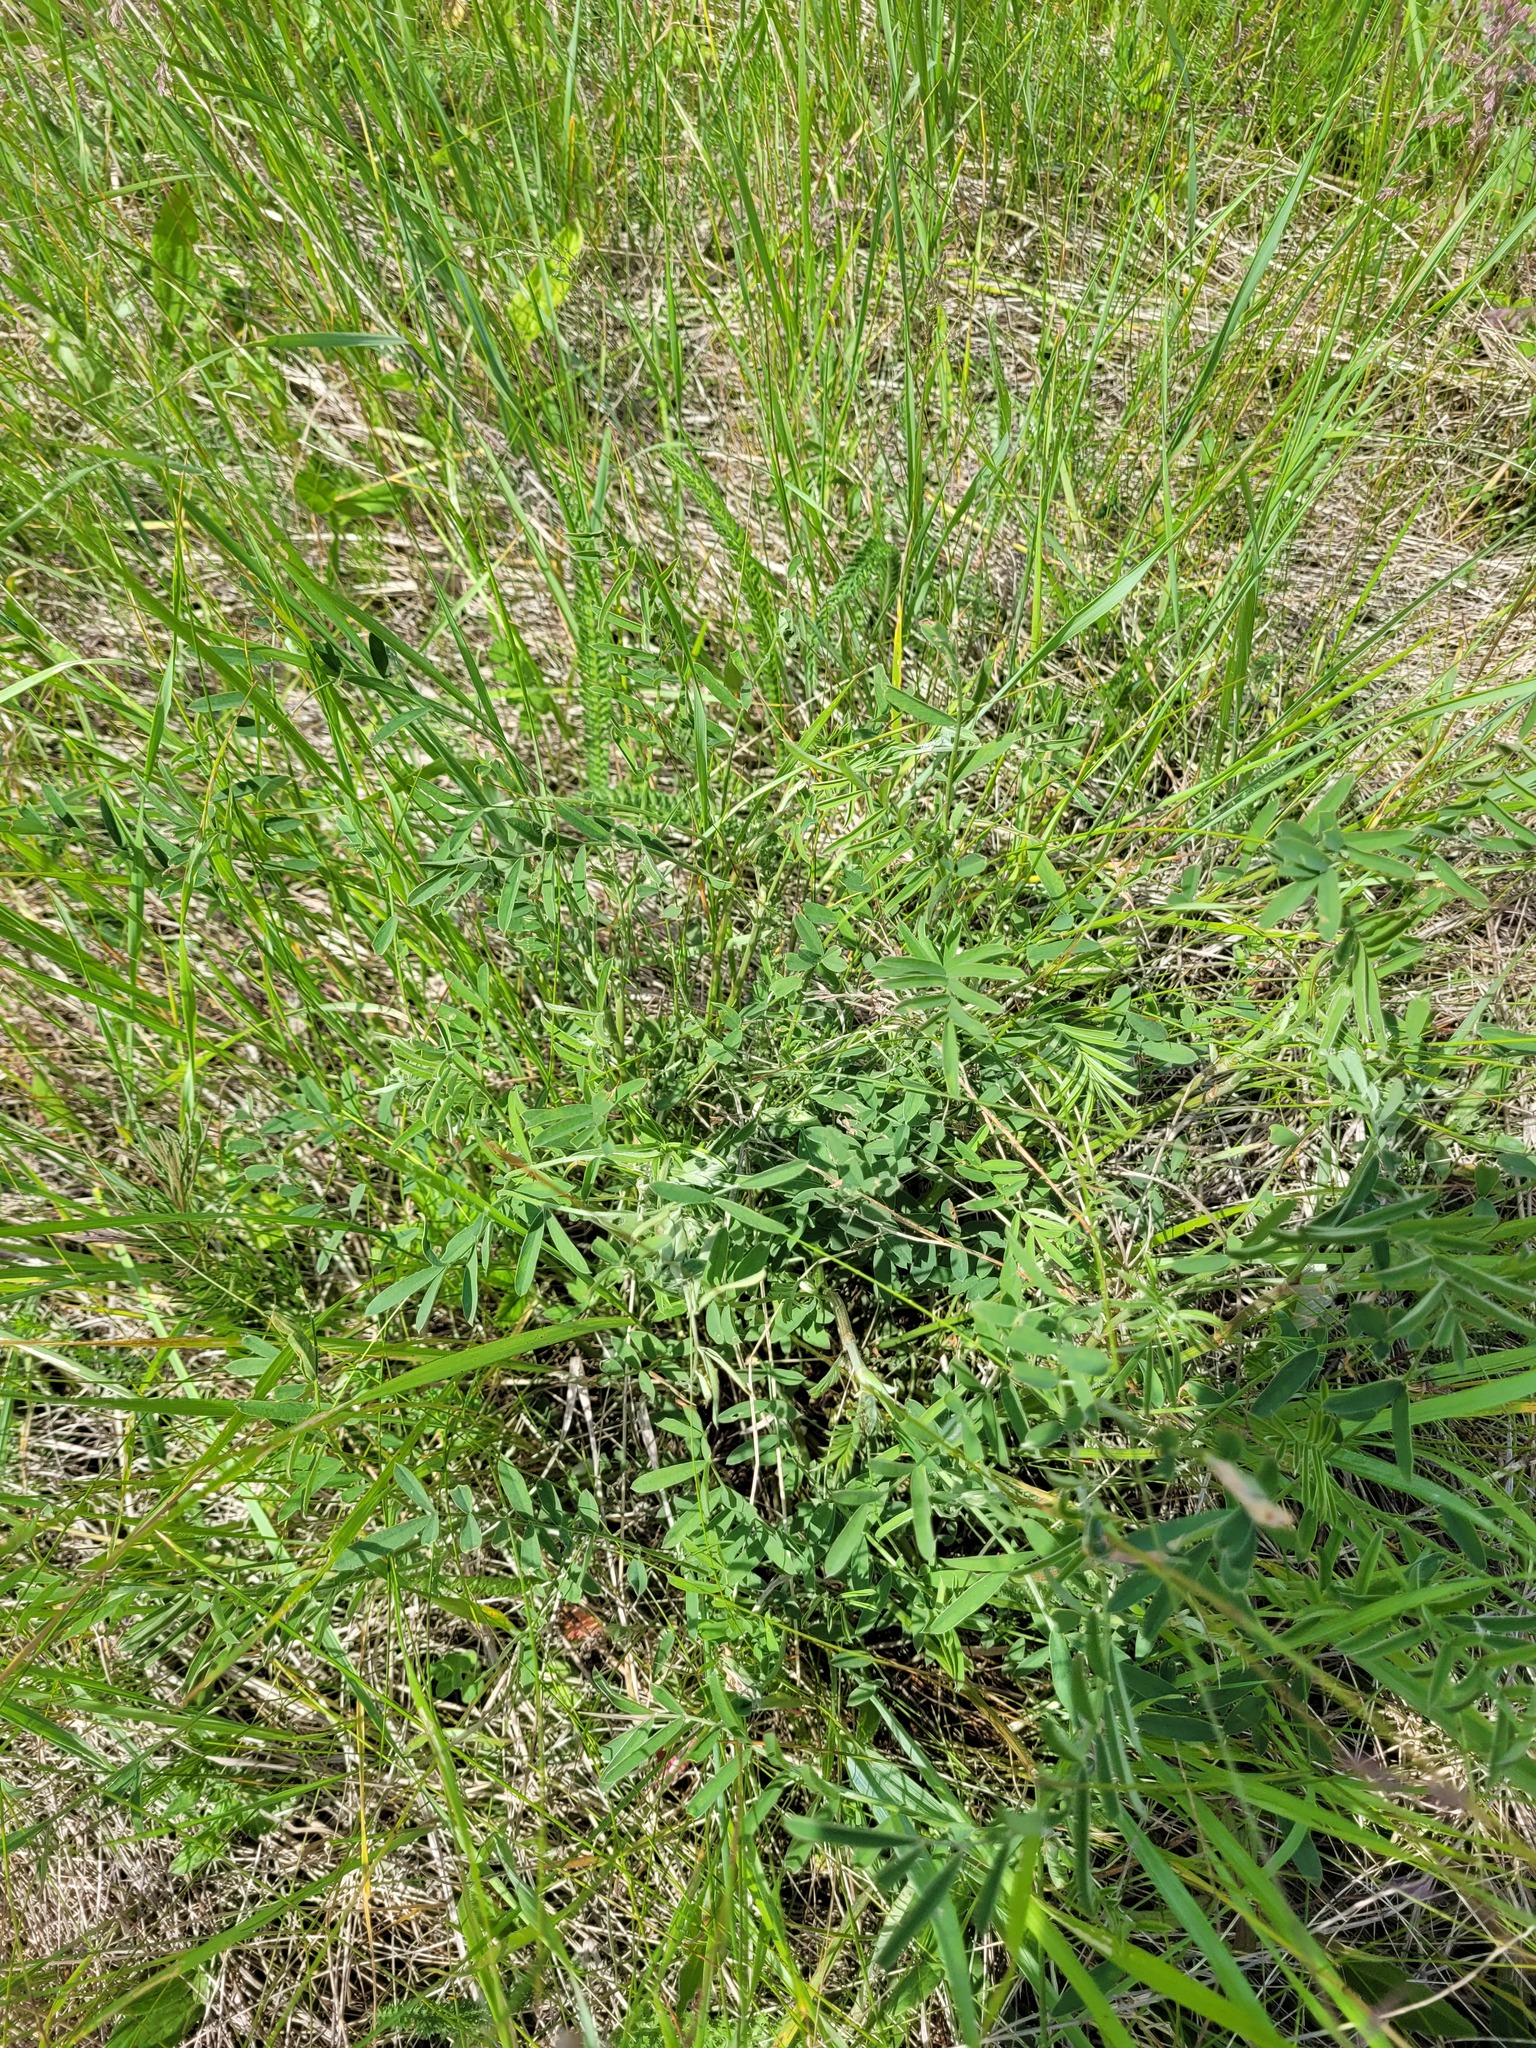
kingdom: Plantae
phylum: Tracheophyta
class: Magnoliopsida
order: Fabales
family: Fabaceae
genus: Onobrychis
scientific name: Onobrychis viciifolia
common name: Sainfoin
